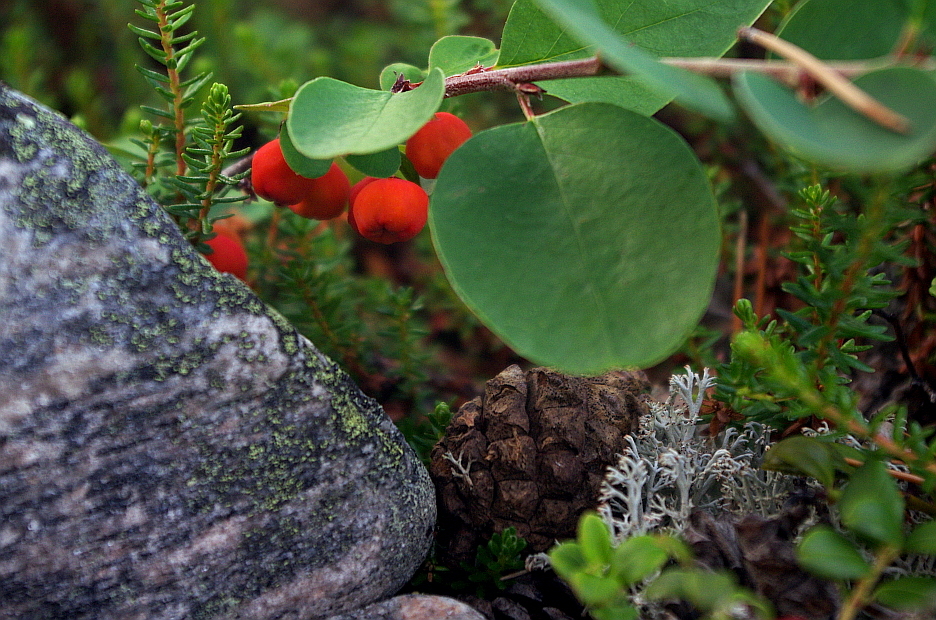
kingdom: Plantae
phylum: Tracheophyta
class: Magnoliopsida
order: Rosales
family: Rosaceae
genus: Cotoneaster
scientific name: Cotoneaster integerrimus
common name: Wild cotoneaster
